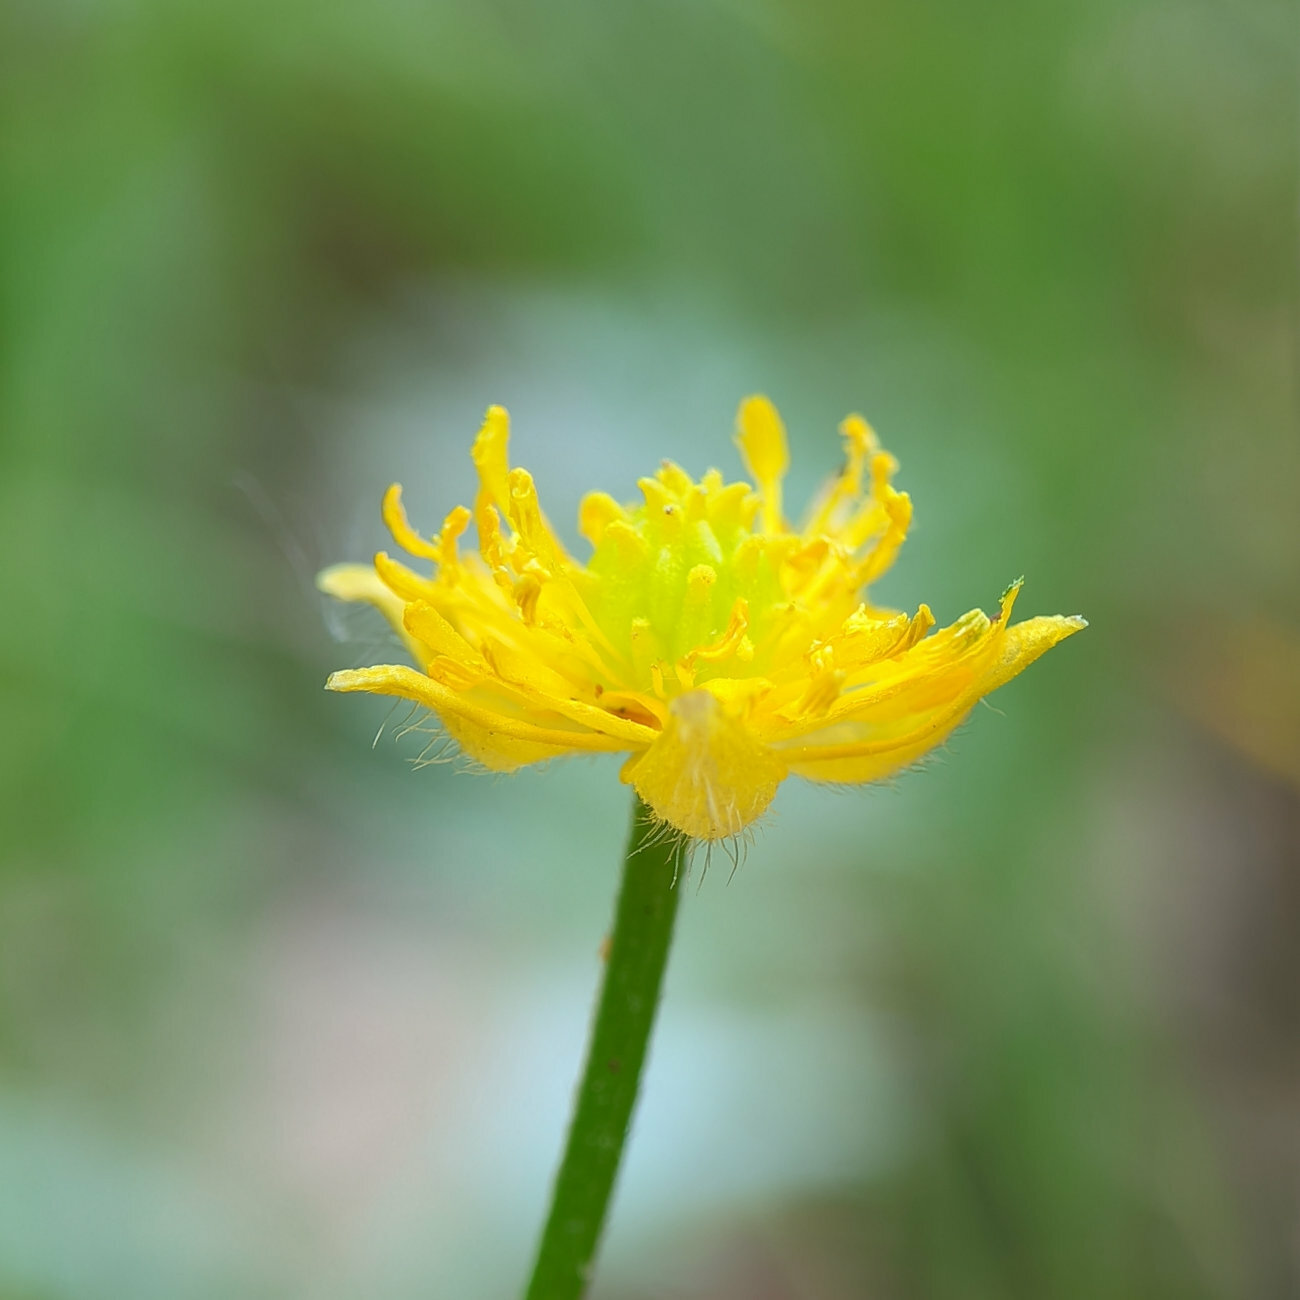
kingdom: Plantae
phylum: Tracheophyta
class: Magnoliopsida
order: Ranunculales
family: Ranunculaceae
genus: Ranunculus
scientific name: Ranunculus repens
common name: Creeping buttercup
